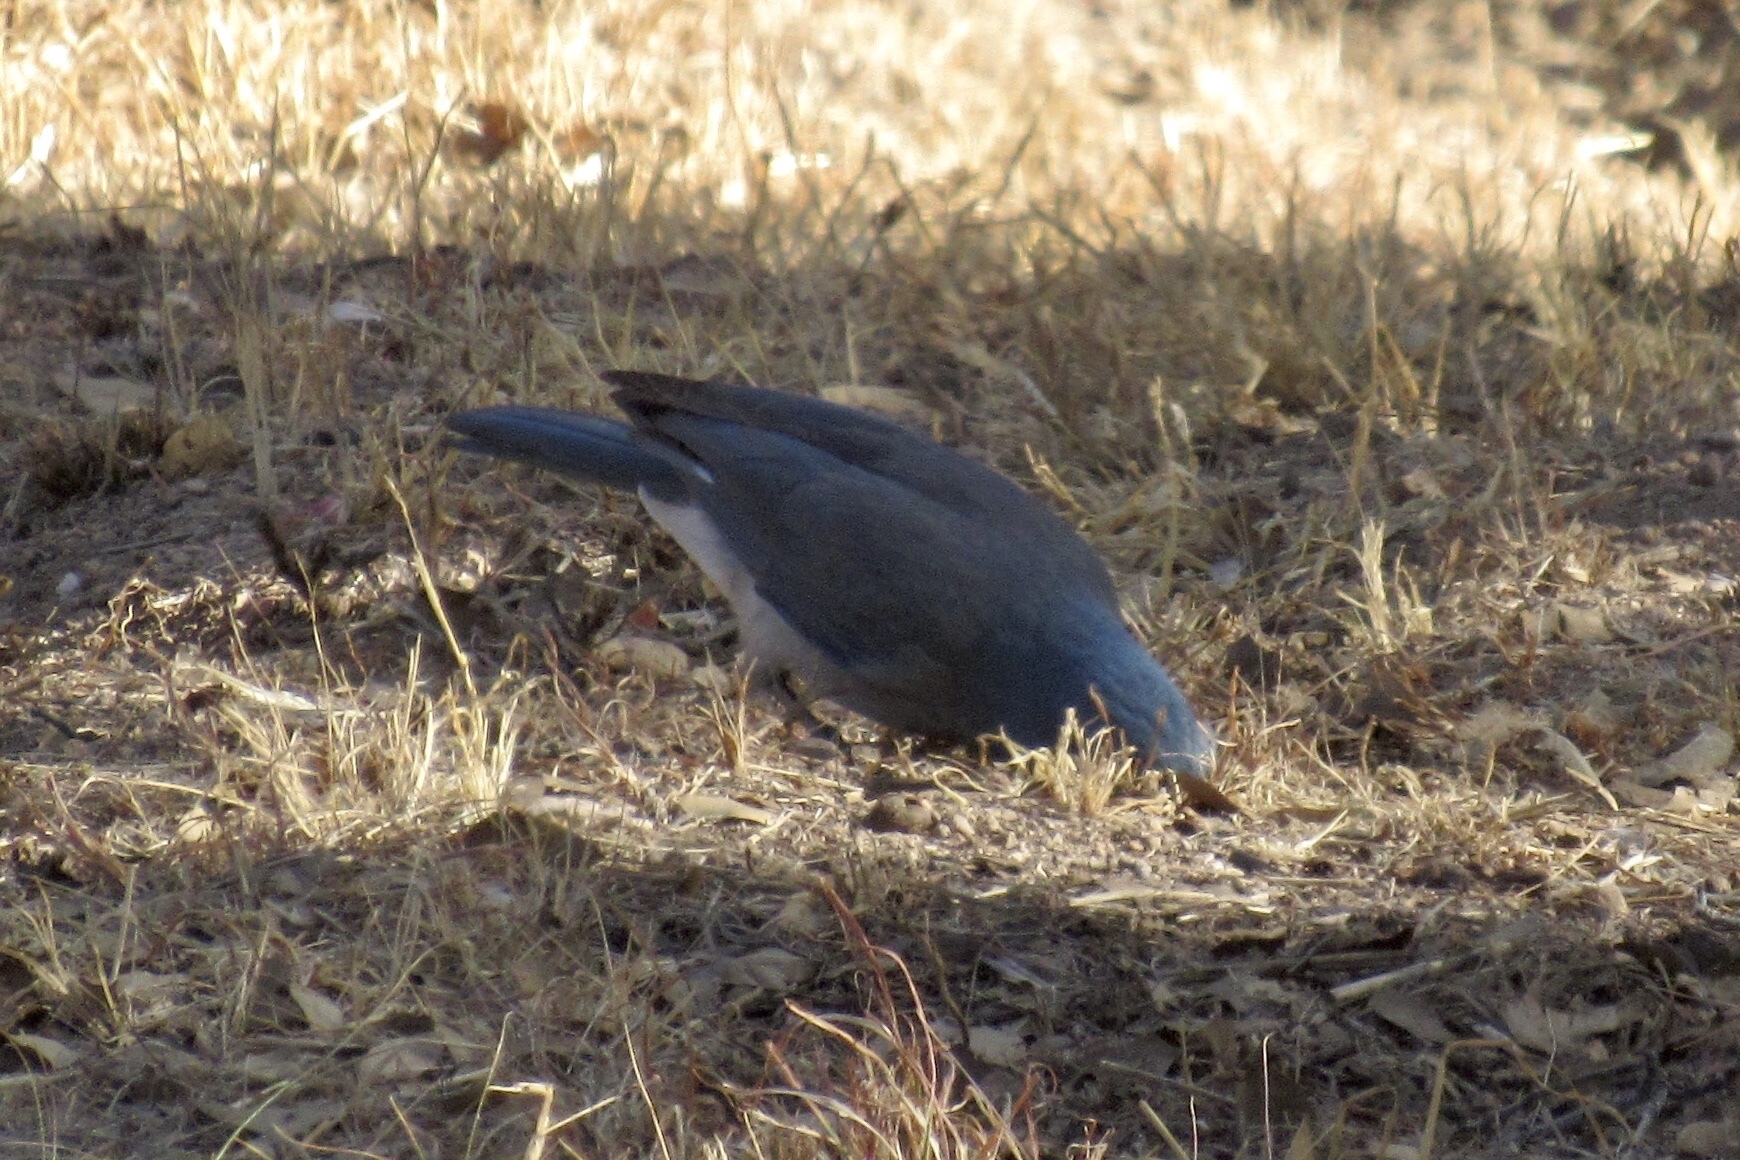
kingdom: Animalia
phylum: Chordata
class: Aves
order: Passeriformes
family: Corvidae
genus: Aphelocoma
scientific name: Aphelocoma wollweberi
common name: Mexican jay
